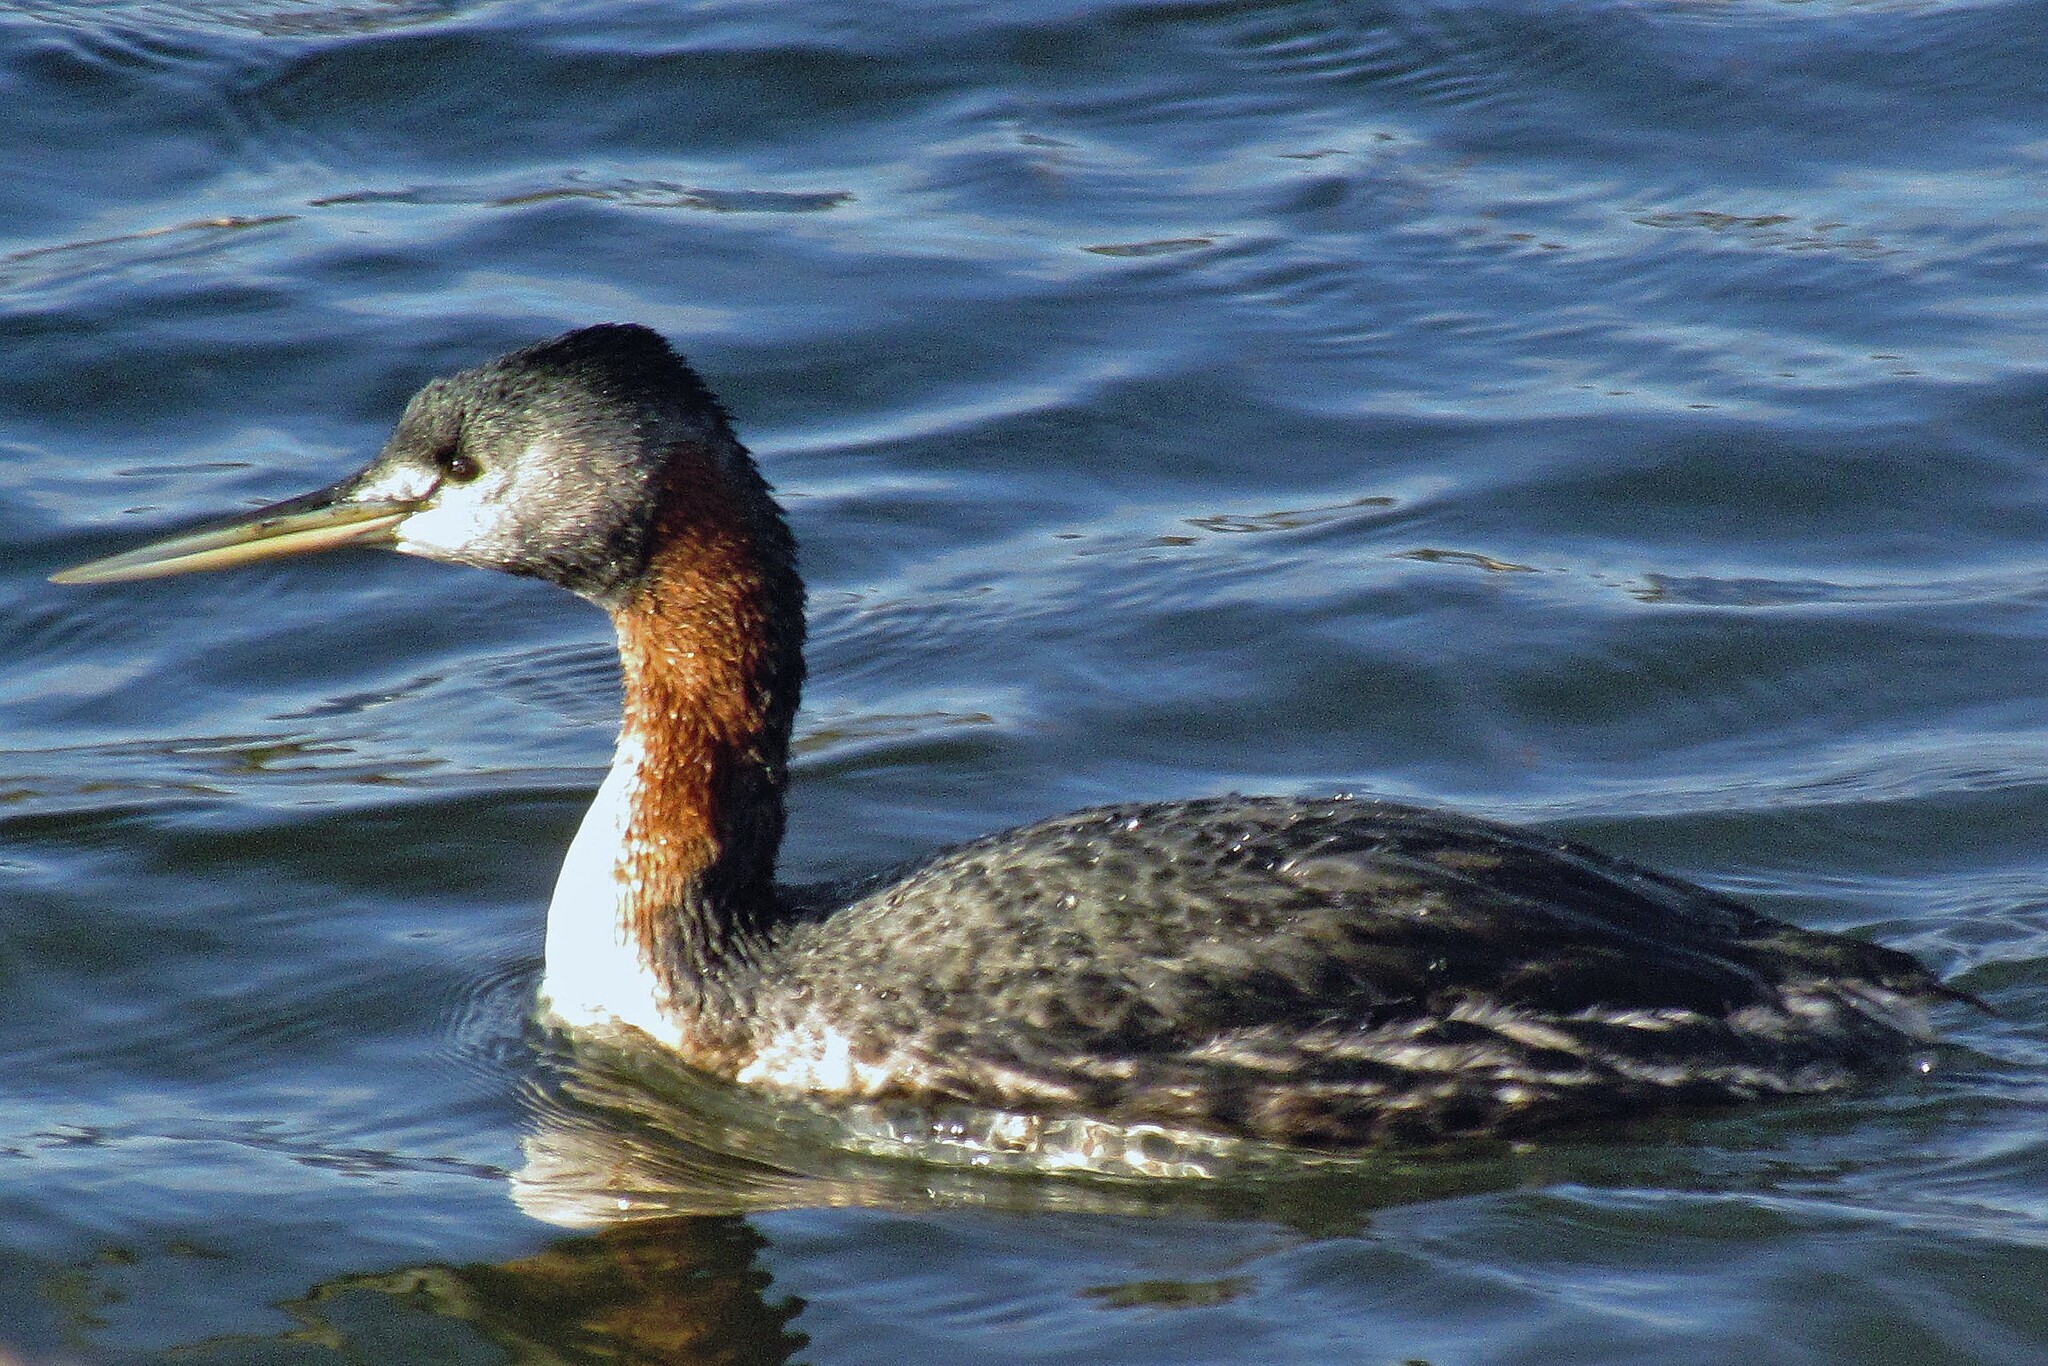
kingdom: Animalia
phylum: Chordata
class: Aves
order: Podicipediformes
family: Podicipedidae
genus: Podiceps
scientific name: Podiceps major
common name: Great grebe
